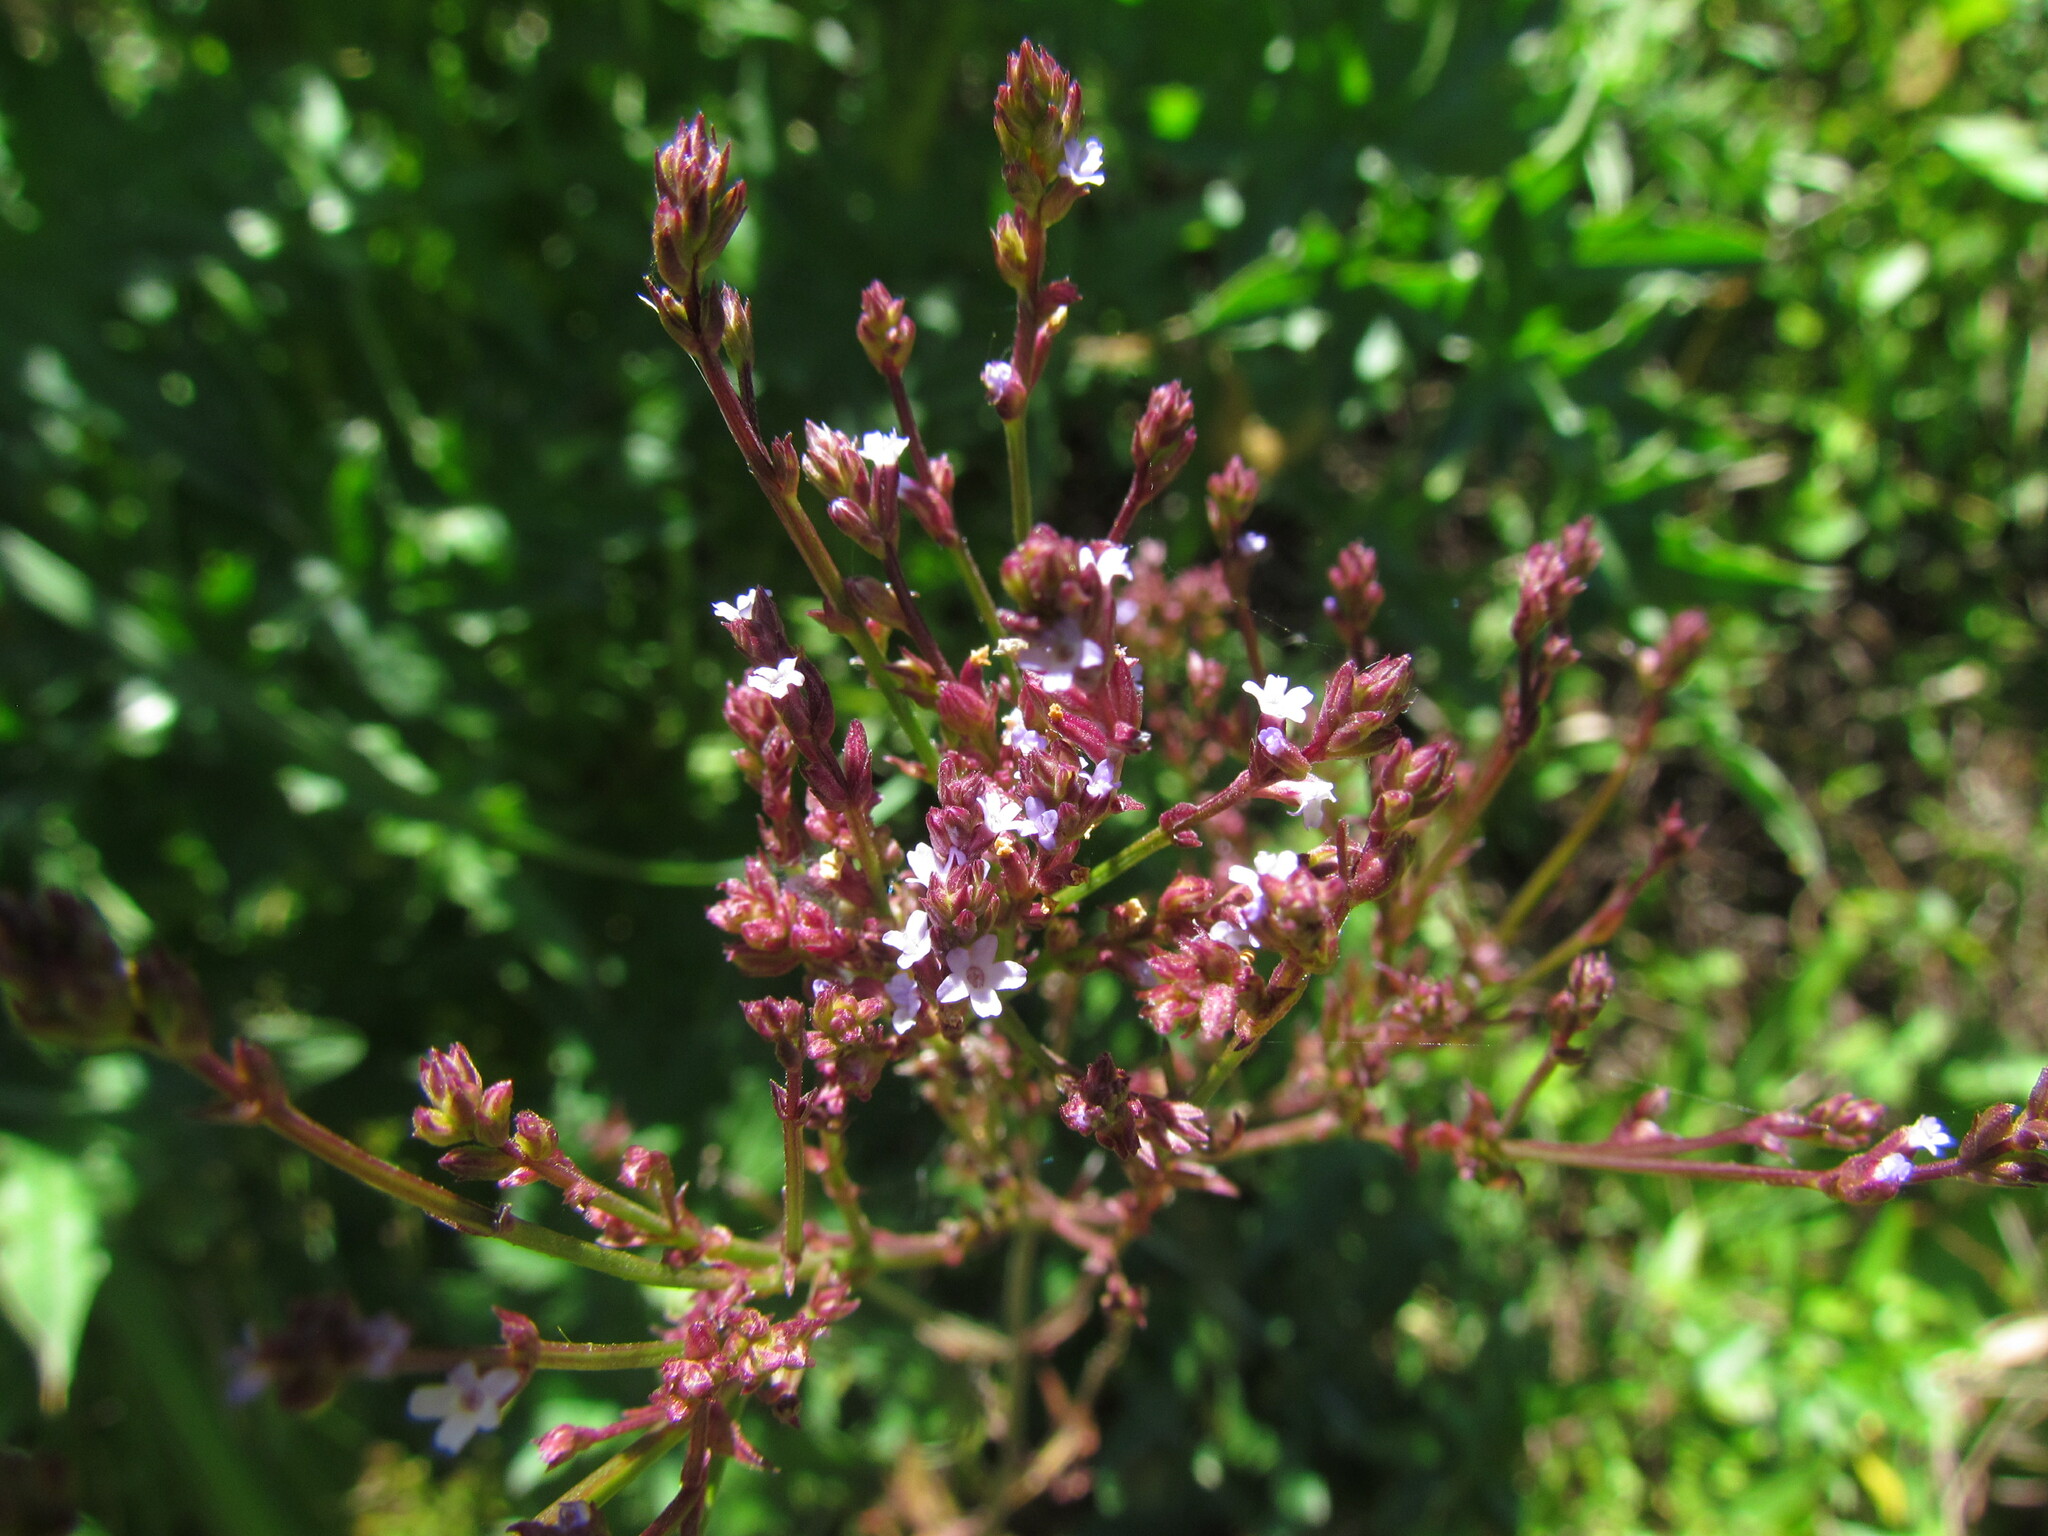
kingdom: Plantae
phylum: Tracheophyta
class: Magnoliopsida
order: Lamiales
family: Verbenaceae
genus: Verbena
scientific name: Verbena litoralis
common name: Seashore vervain
